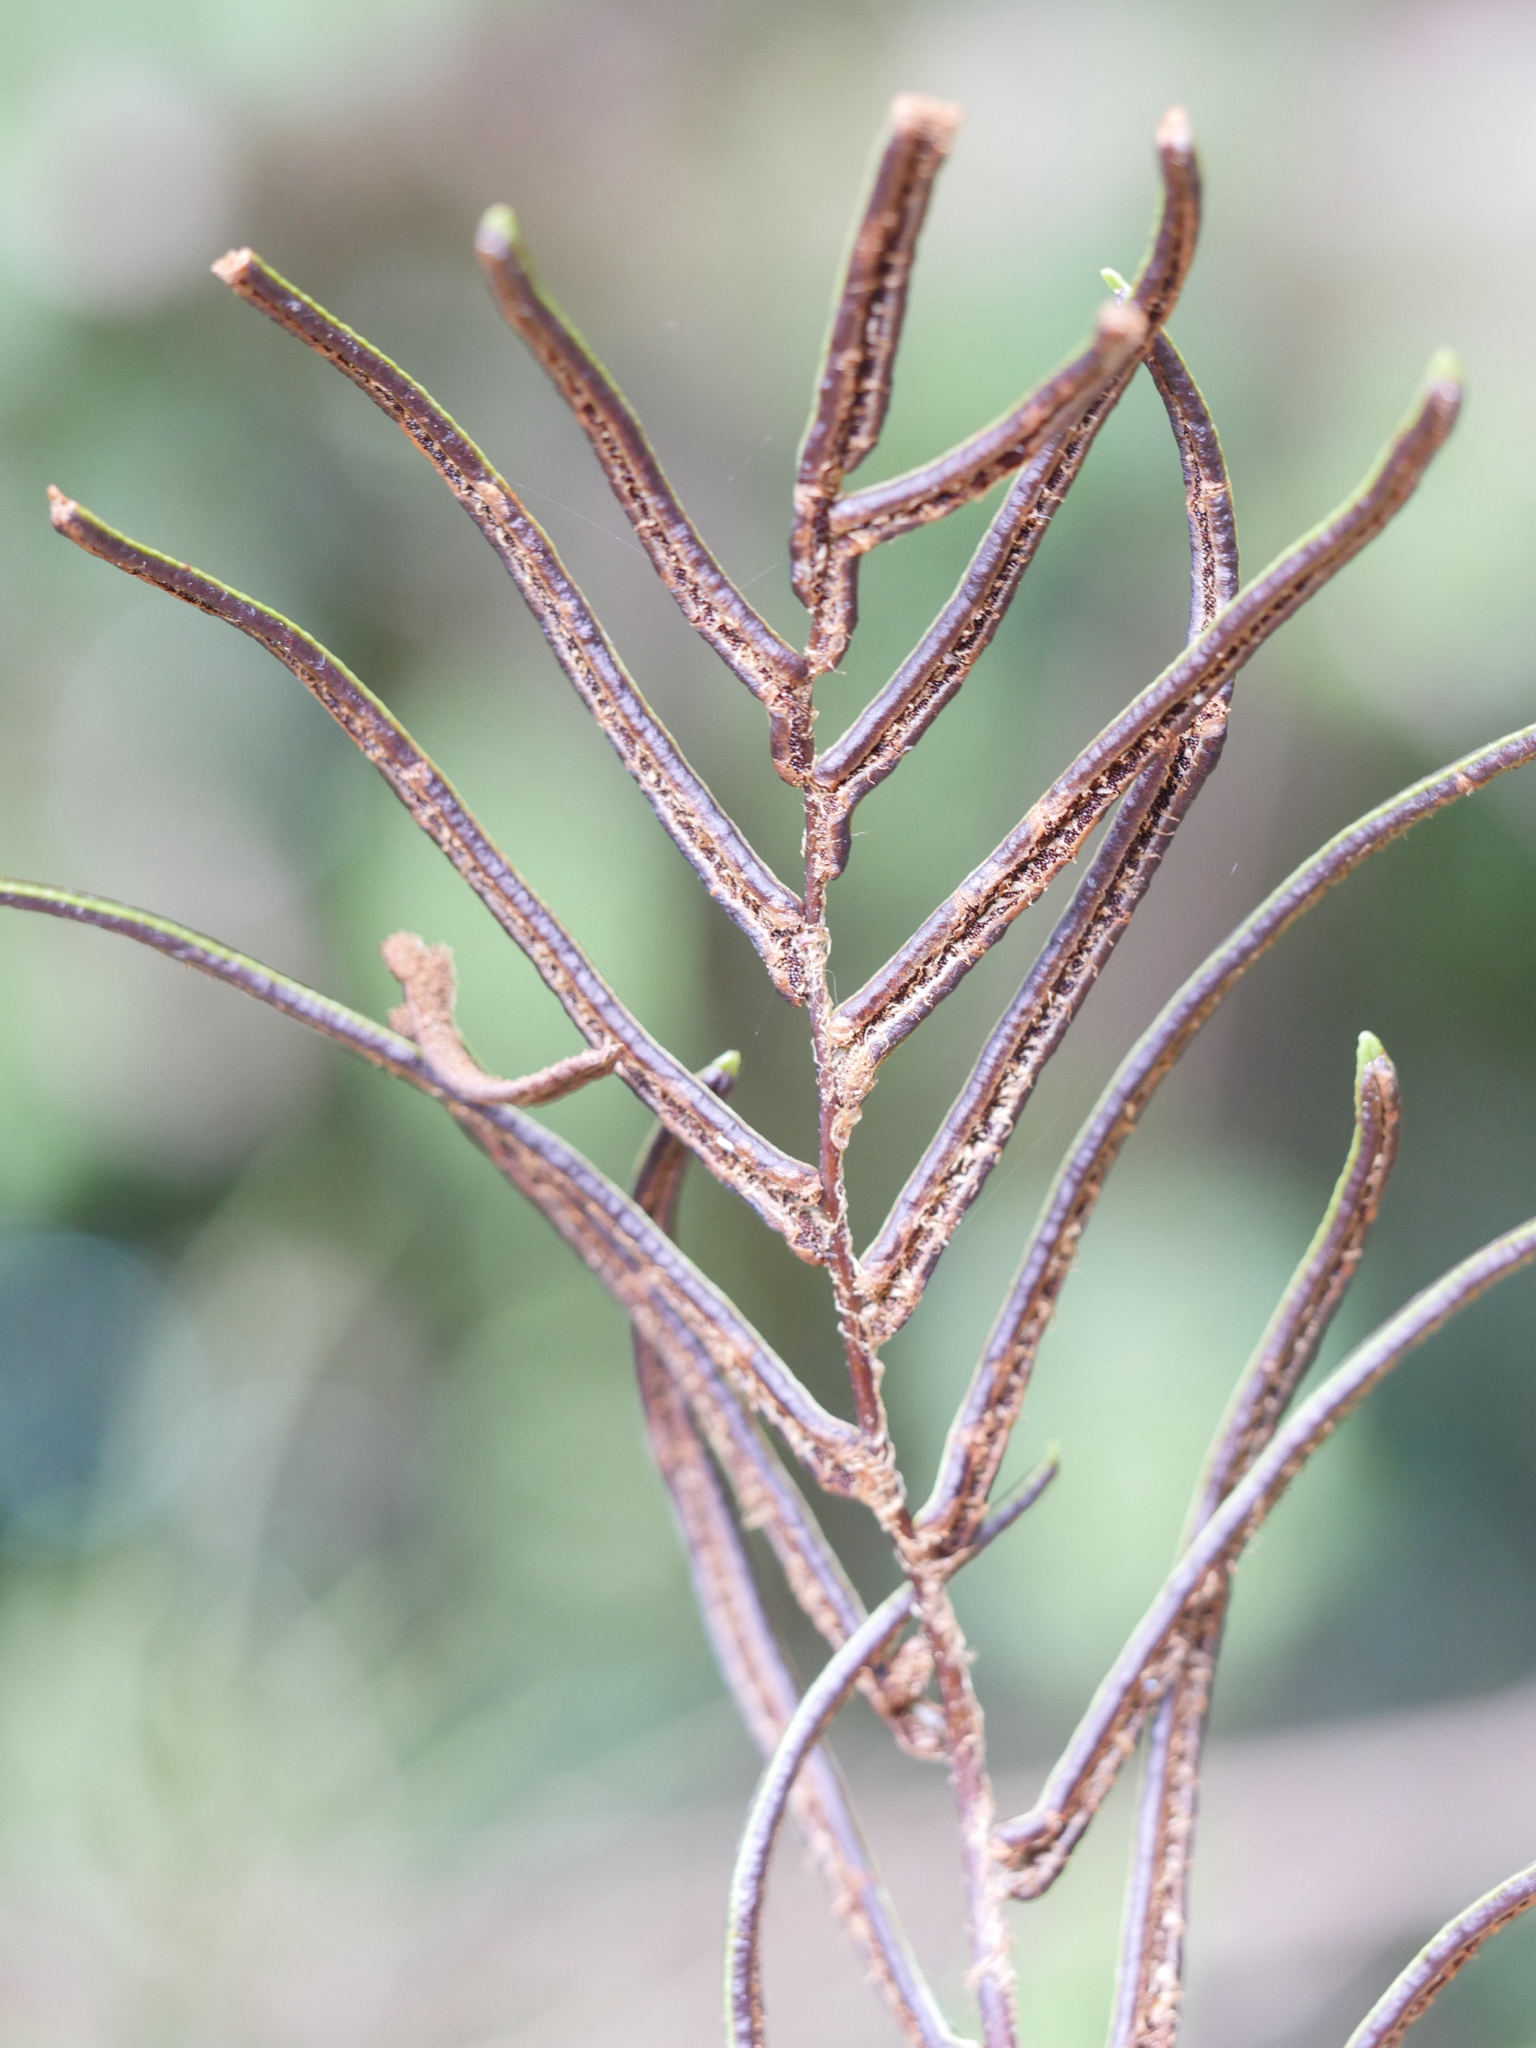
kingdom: Plantae
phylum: Tracheophyta
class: Polypodiopsida
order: Polypodiales
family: Blechnaceae
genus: Parablechnum
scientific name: Parablechnum procerum
